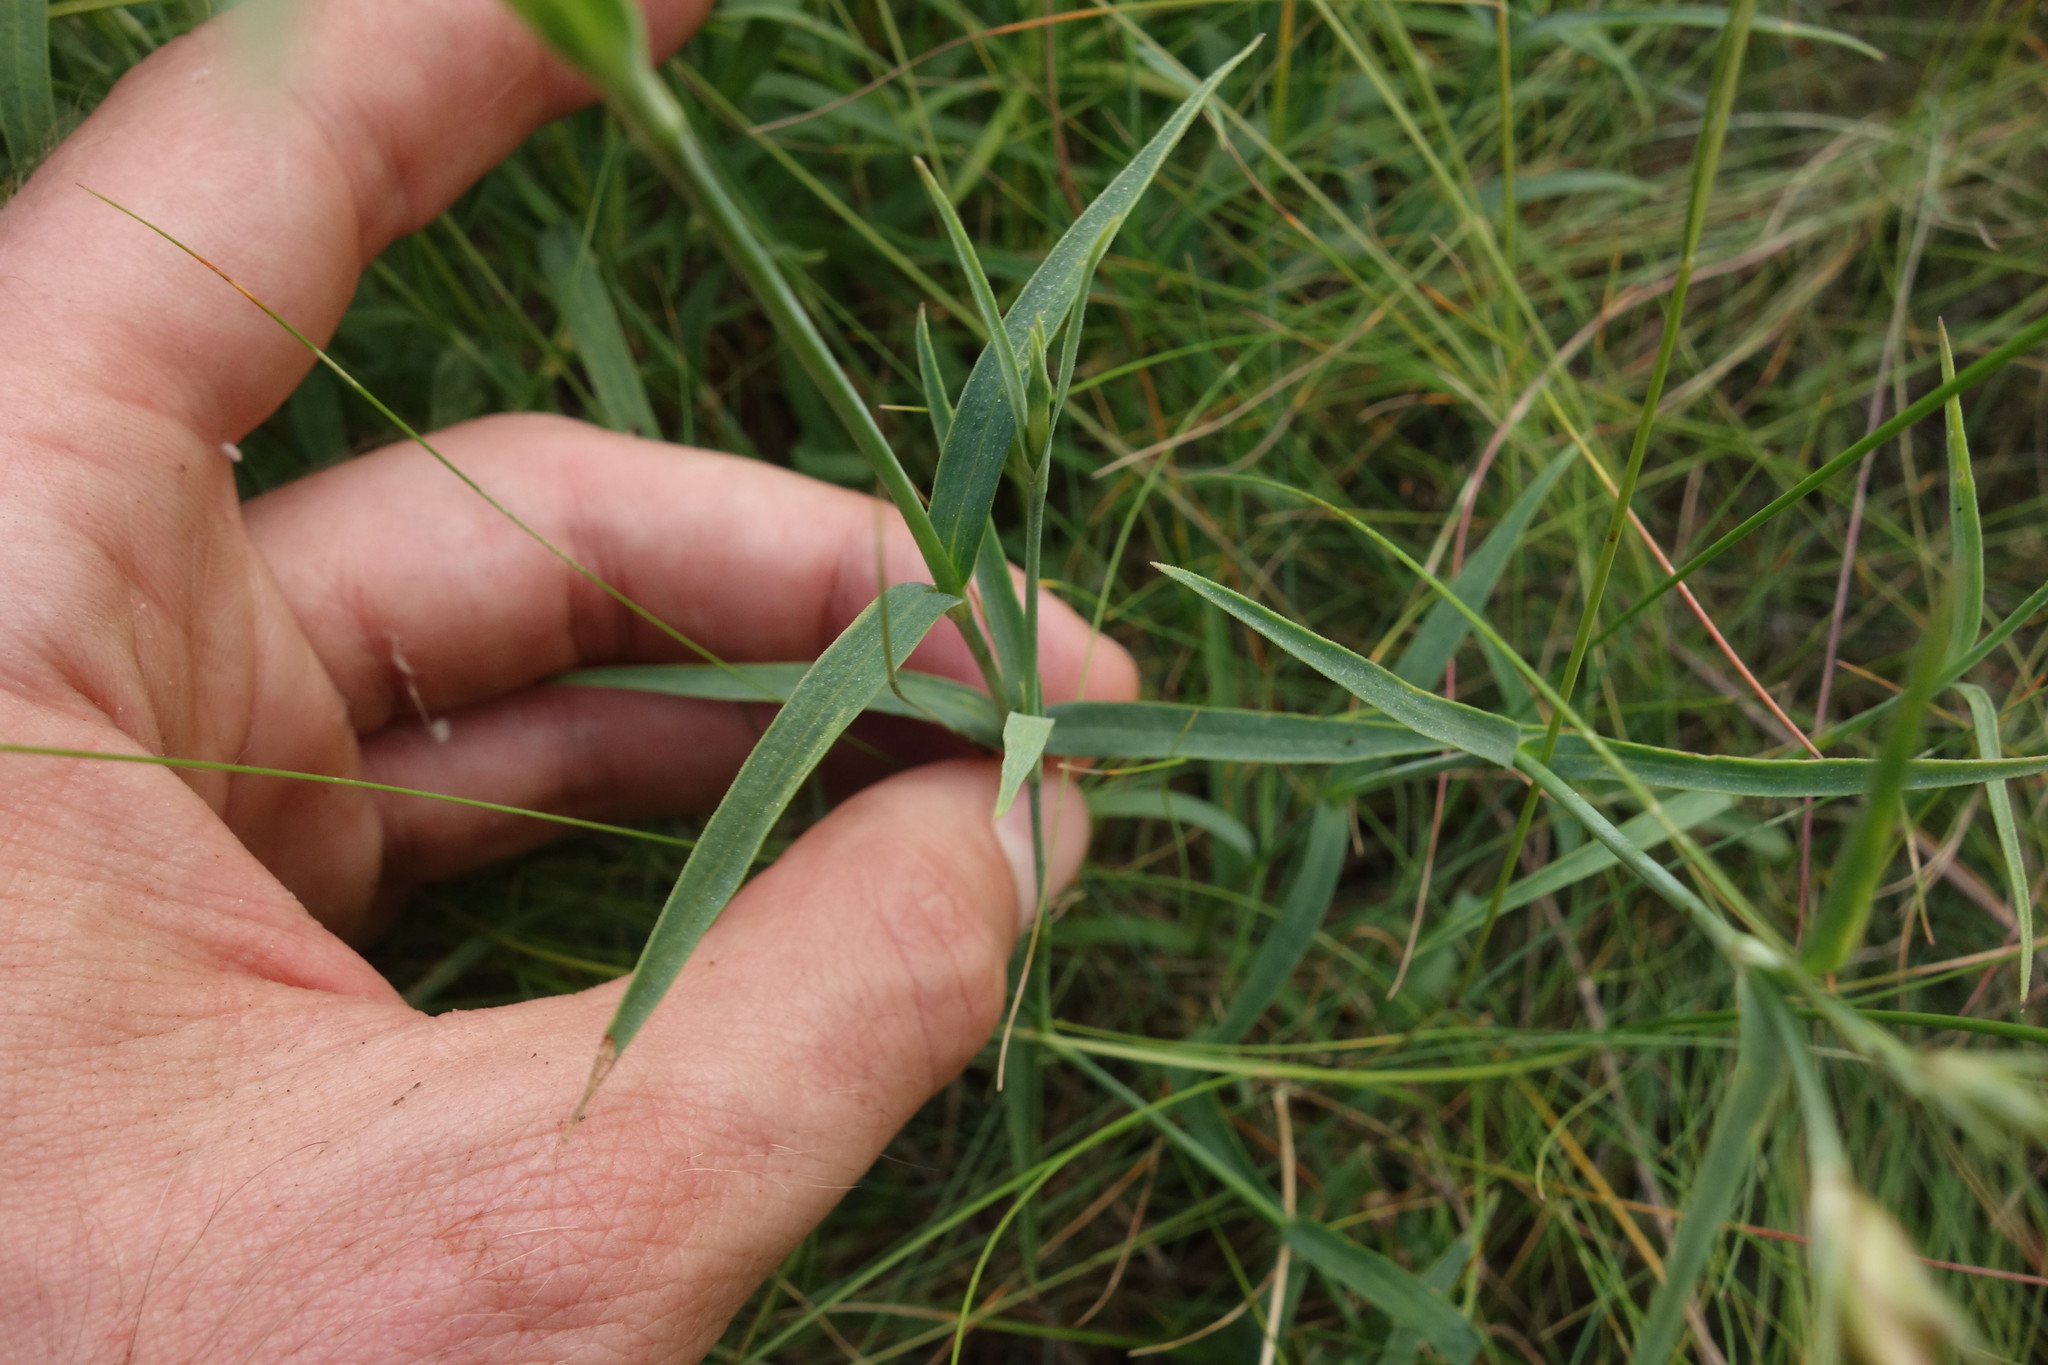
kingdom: Plantae
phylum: Tracheophyta
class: Magnoliopsida
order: Caryophyllales
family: Caryophyllaceae
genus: Dianthus
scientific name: Dianthus chinensis
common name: Rainbow pink
